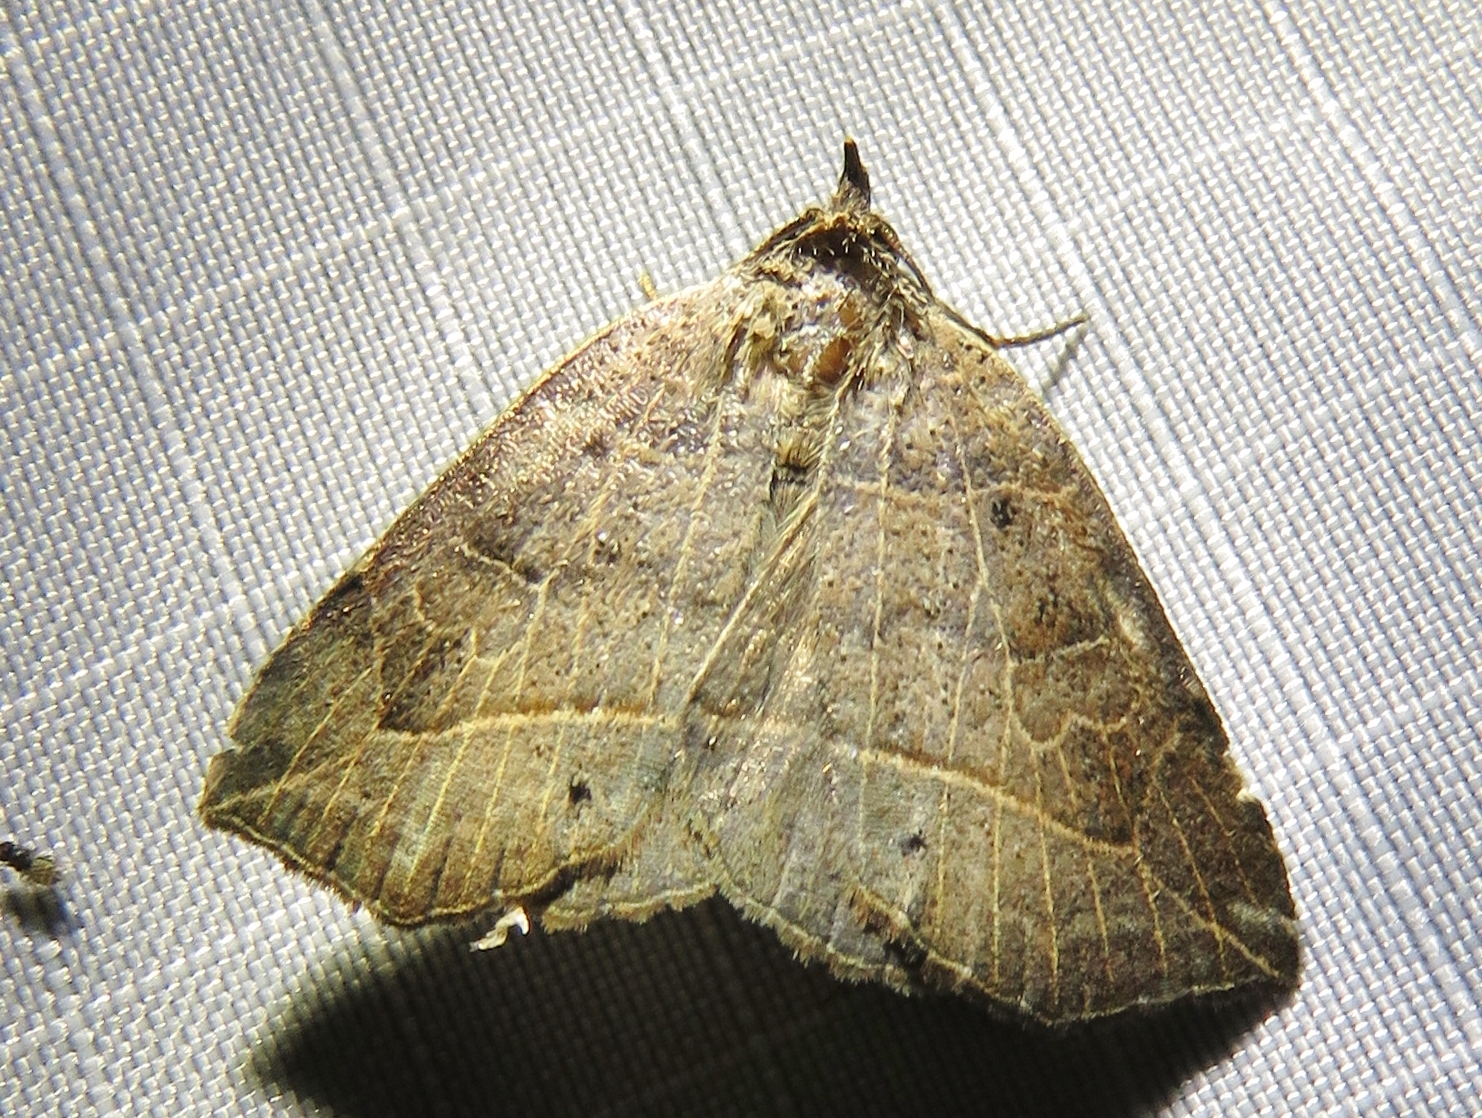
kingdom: Animalia
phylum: Arthropoda
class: Insecta
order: Lepidoptera
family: Erebidae
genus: Isogona
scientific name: Isogona tenuis
